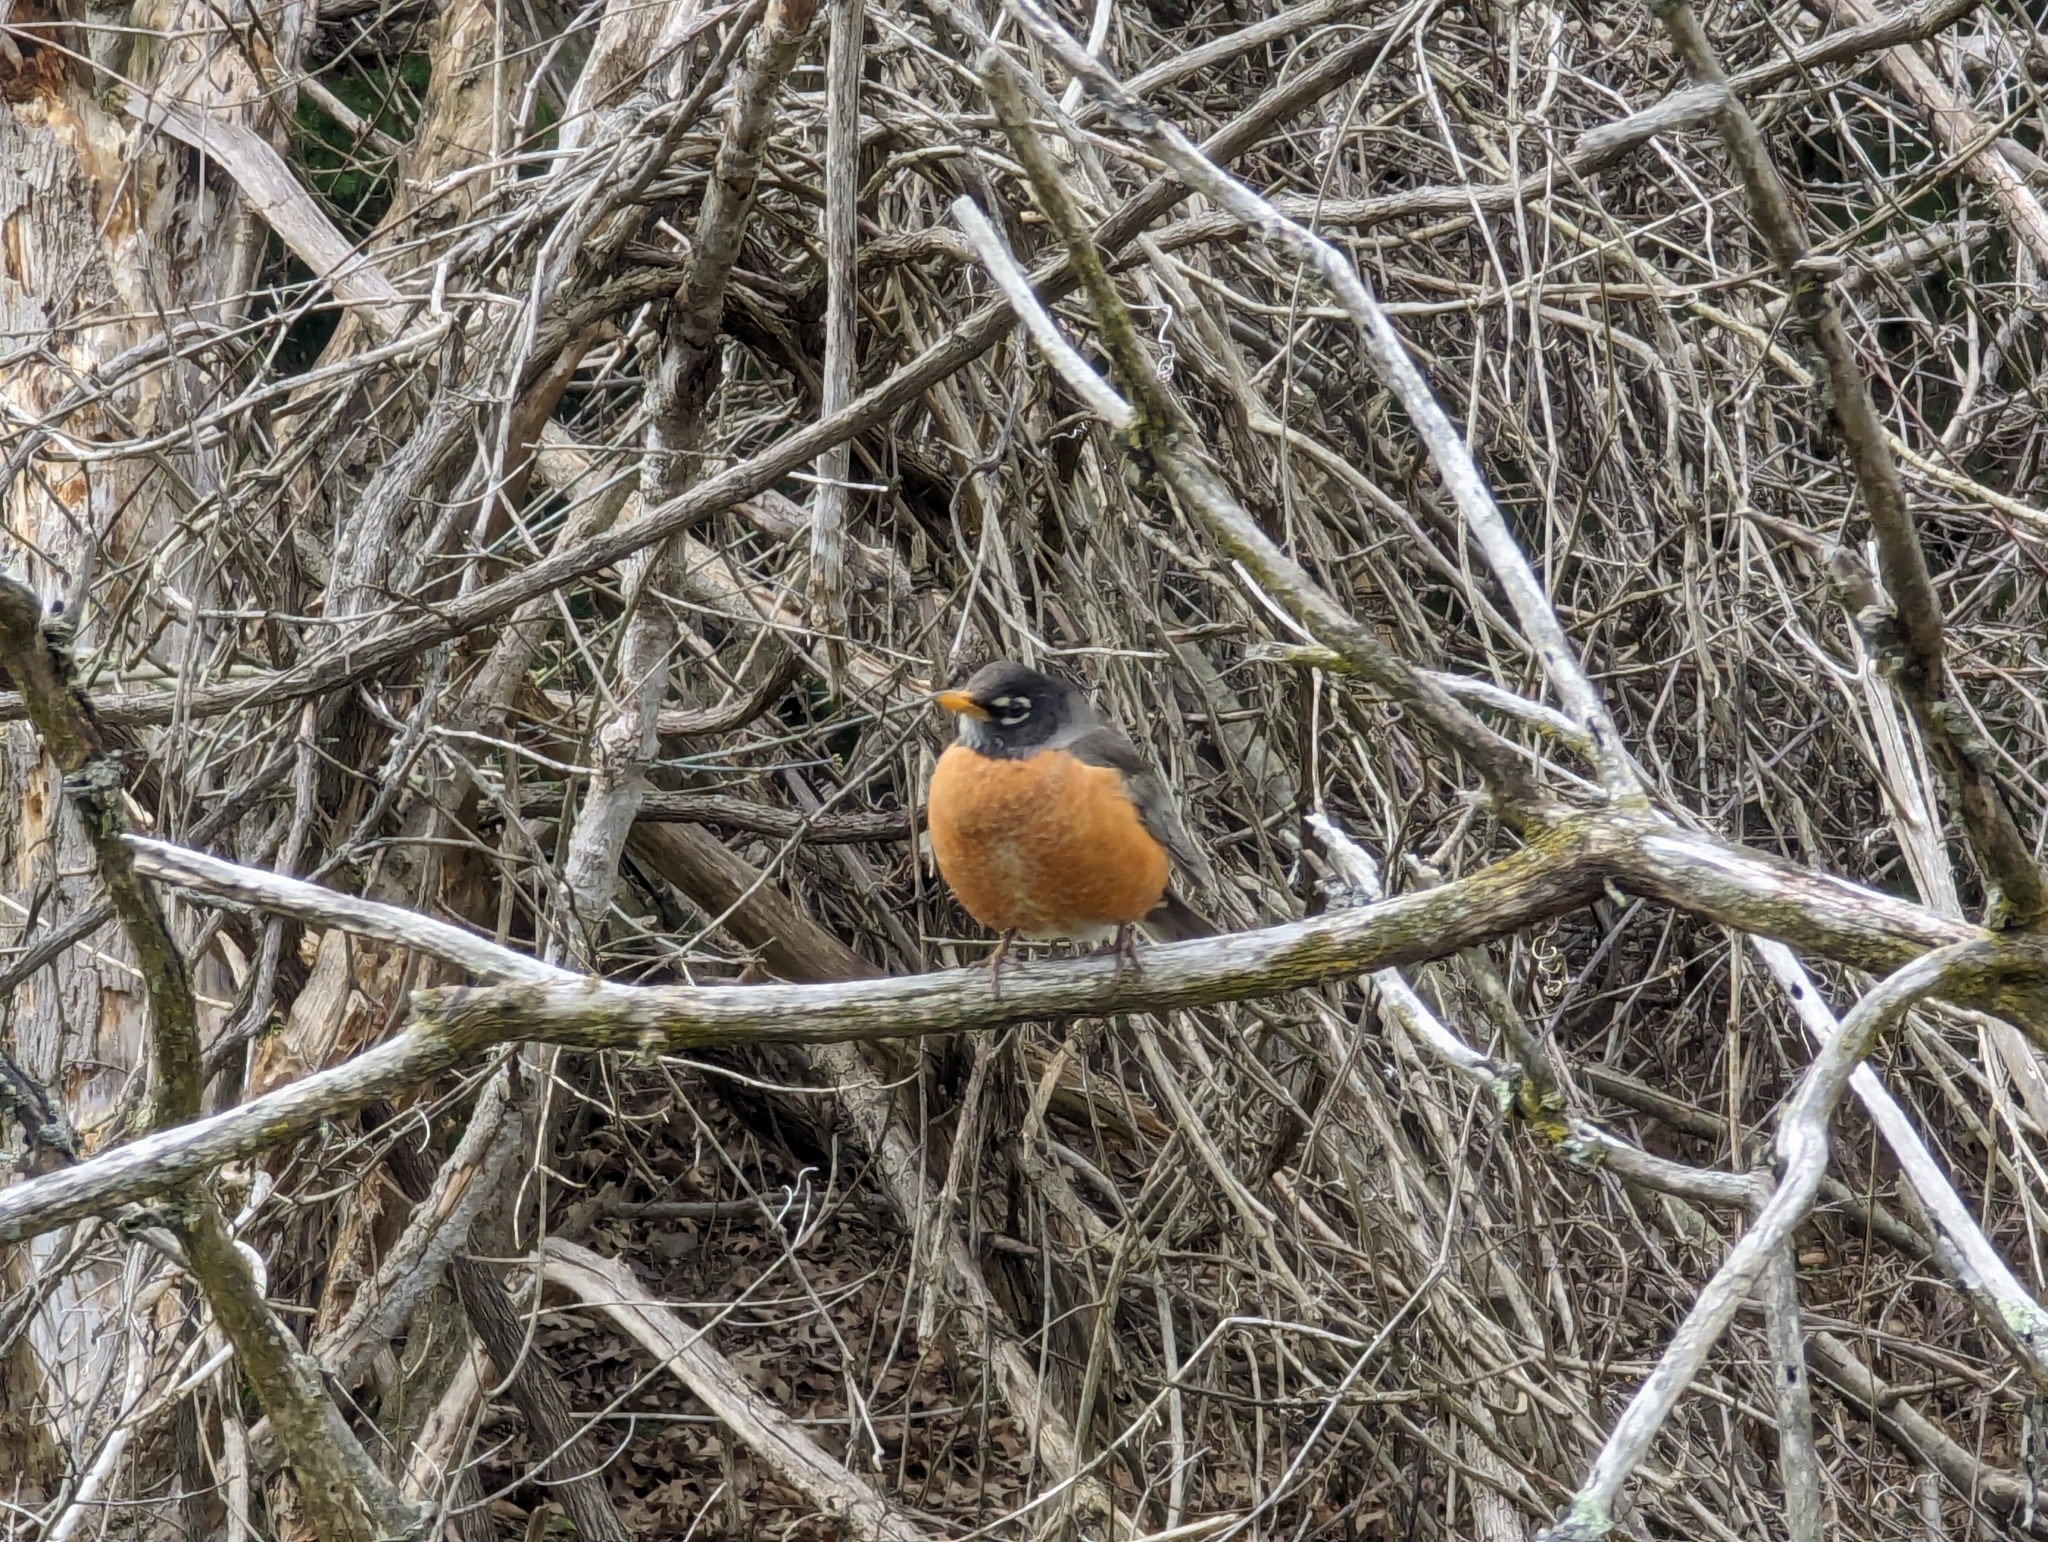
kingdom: Animalia
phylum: Chordata
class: Aves
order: Passeriformes
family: Turdidae
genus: Turdus
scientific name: Turdus migratorius
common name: American robin
